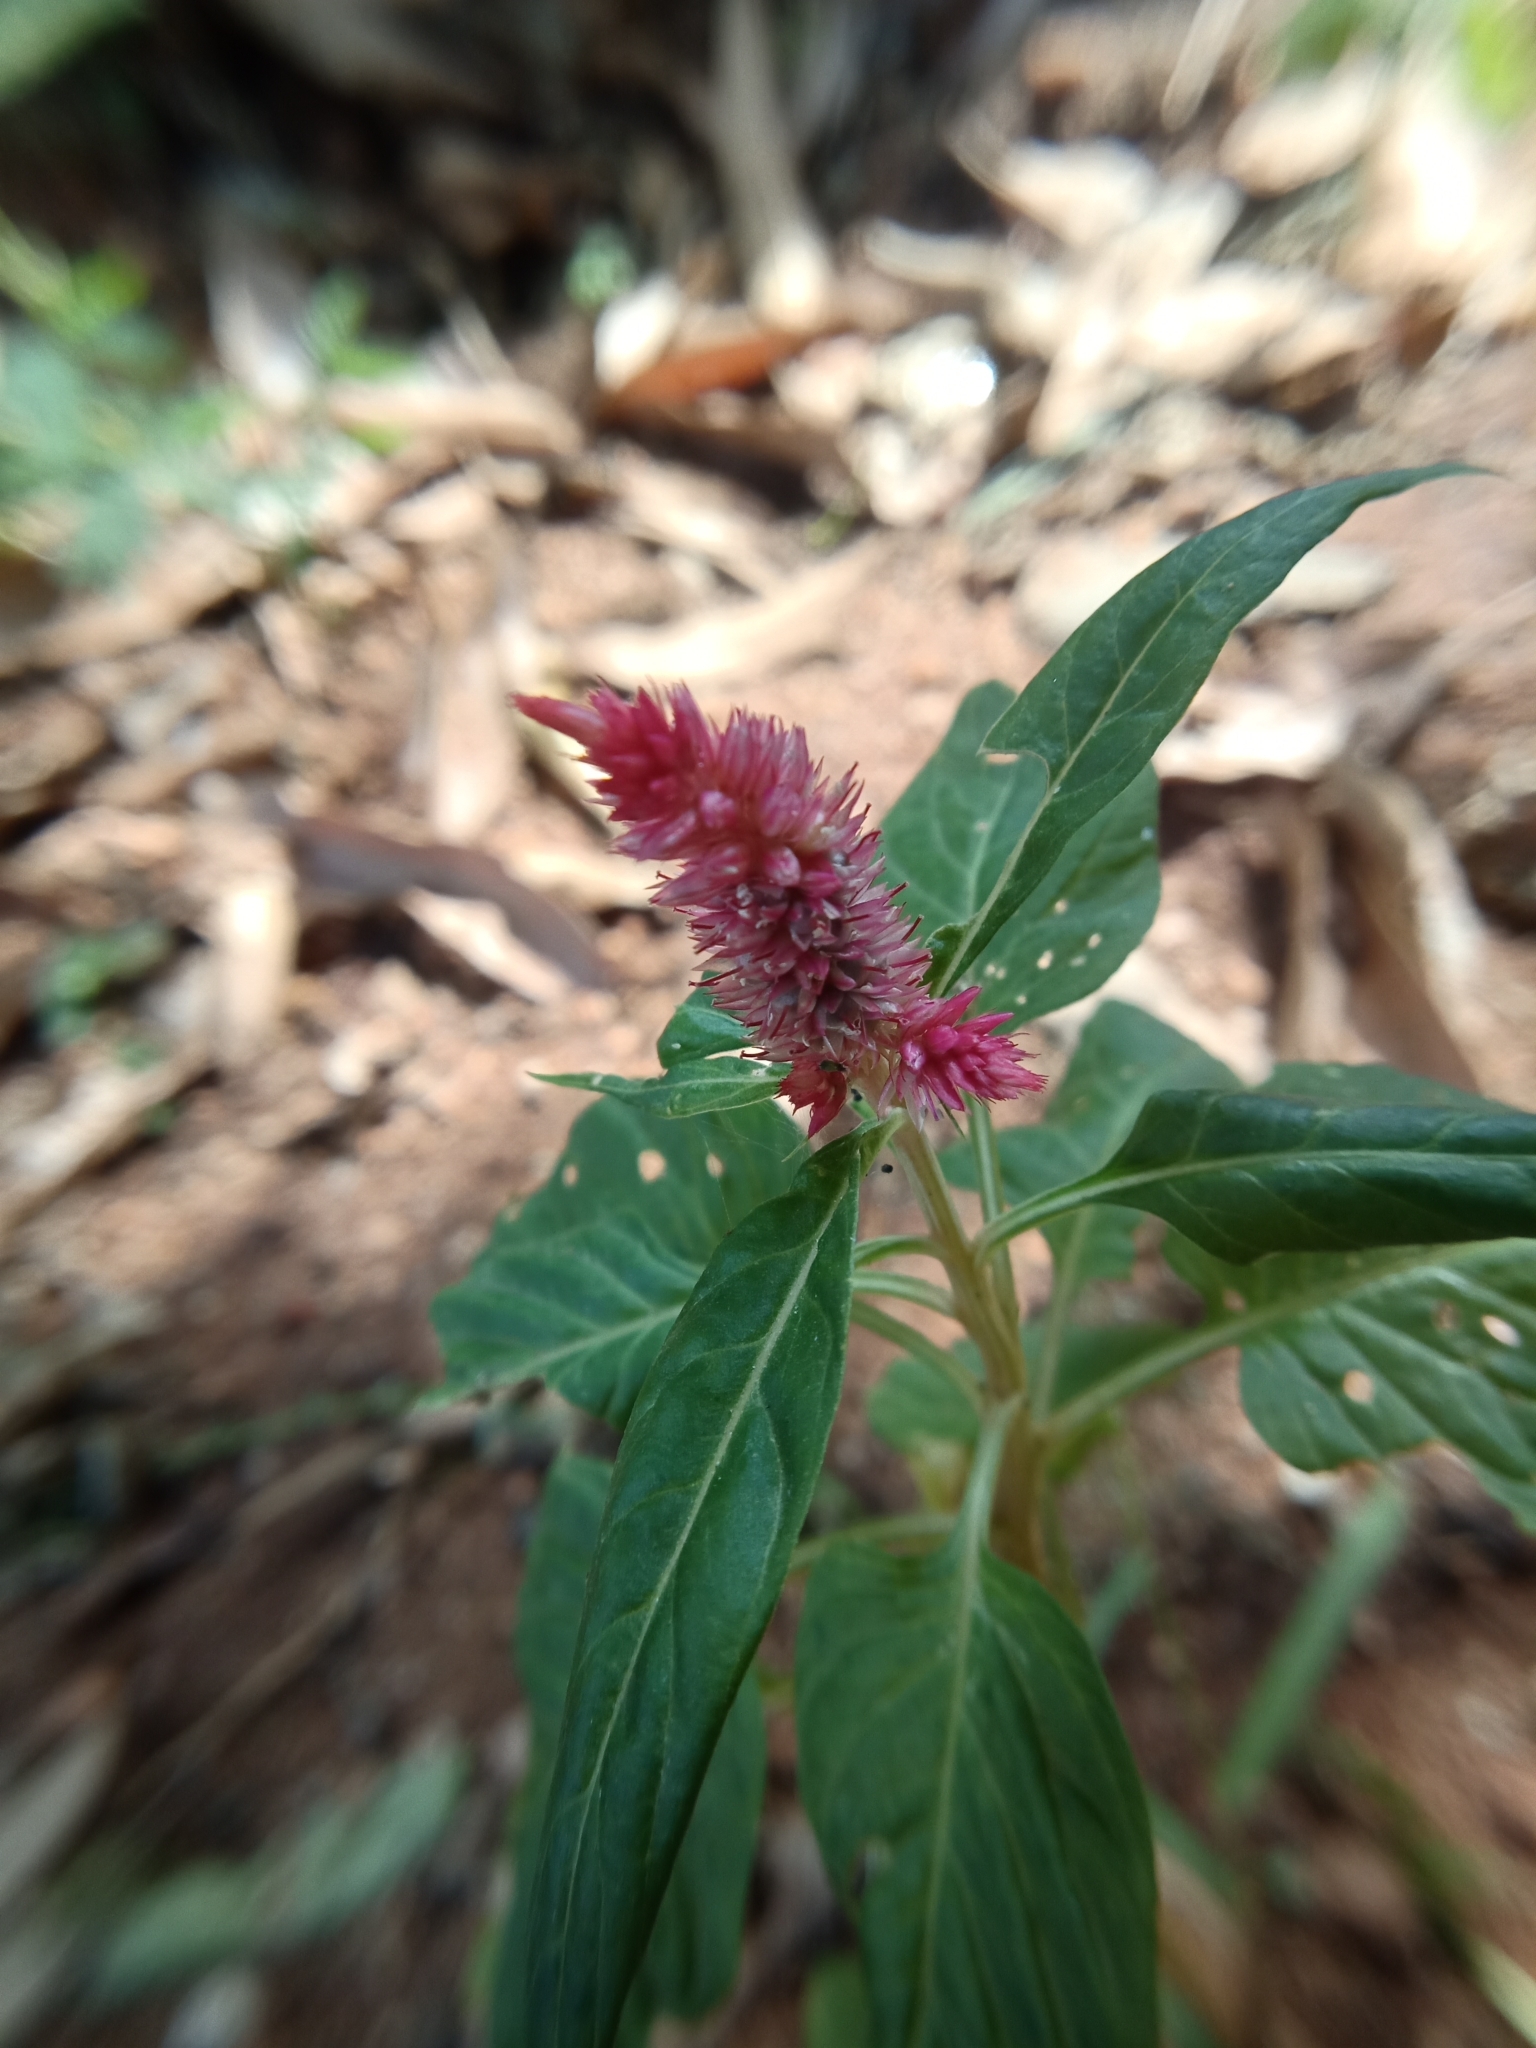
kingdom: Plantae
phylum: Tracheophyta
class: Magnoliopsida
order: Caryophyllales
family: Amaranthaceae
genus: Celosia
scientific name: Celosia argentea
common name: Feather cockscomb
